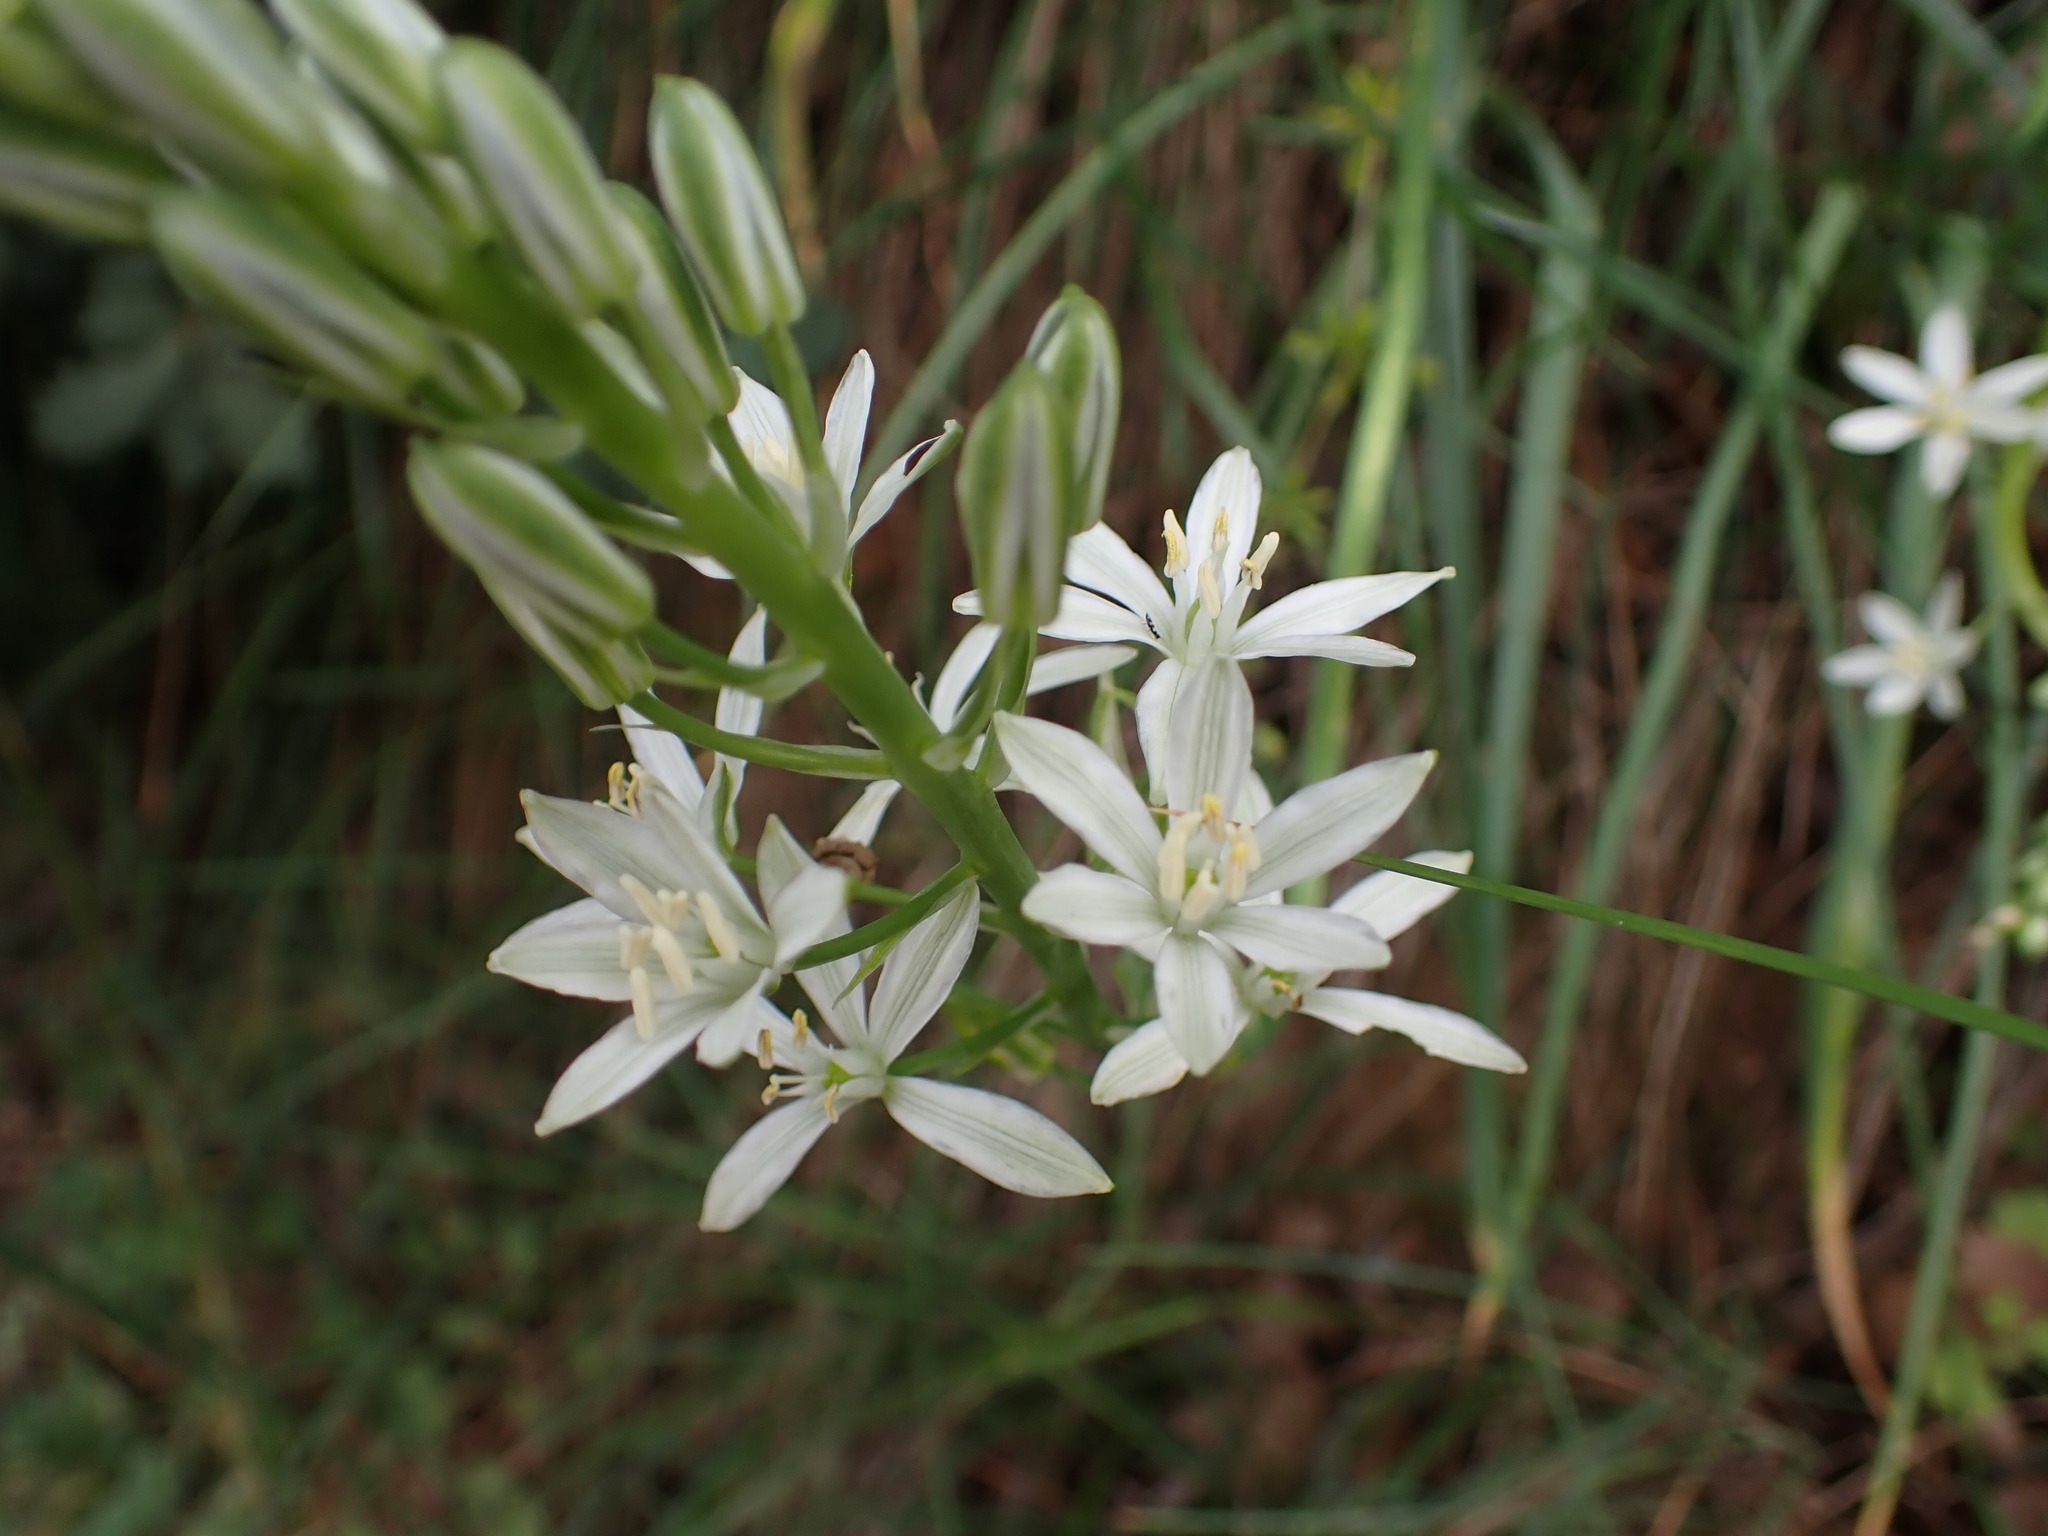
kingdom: Plantae
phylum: Tracheophyta
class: Liliopsida
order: Asparagales
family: Asparagaceae
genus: Ornithogalum
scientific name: Ornithogalum narbonense
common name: Bath-asparagus
